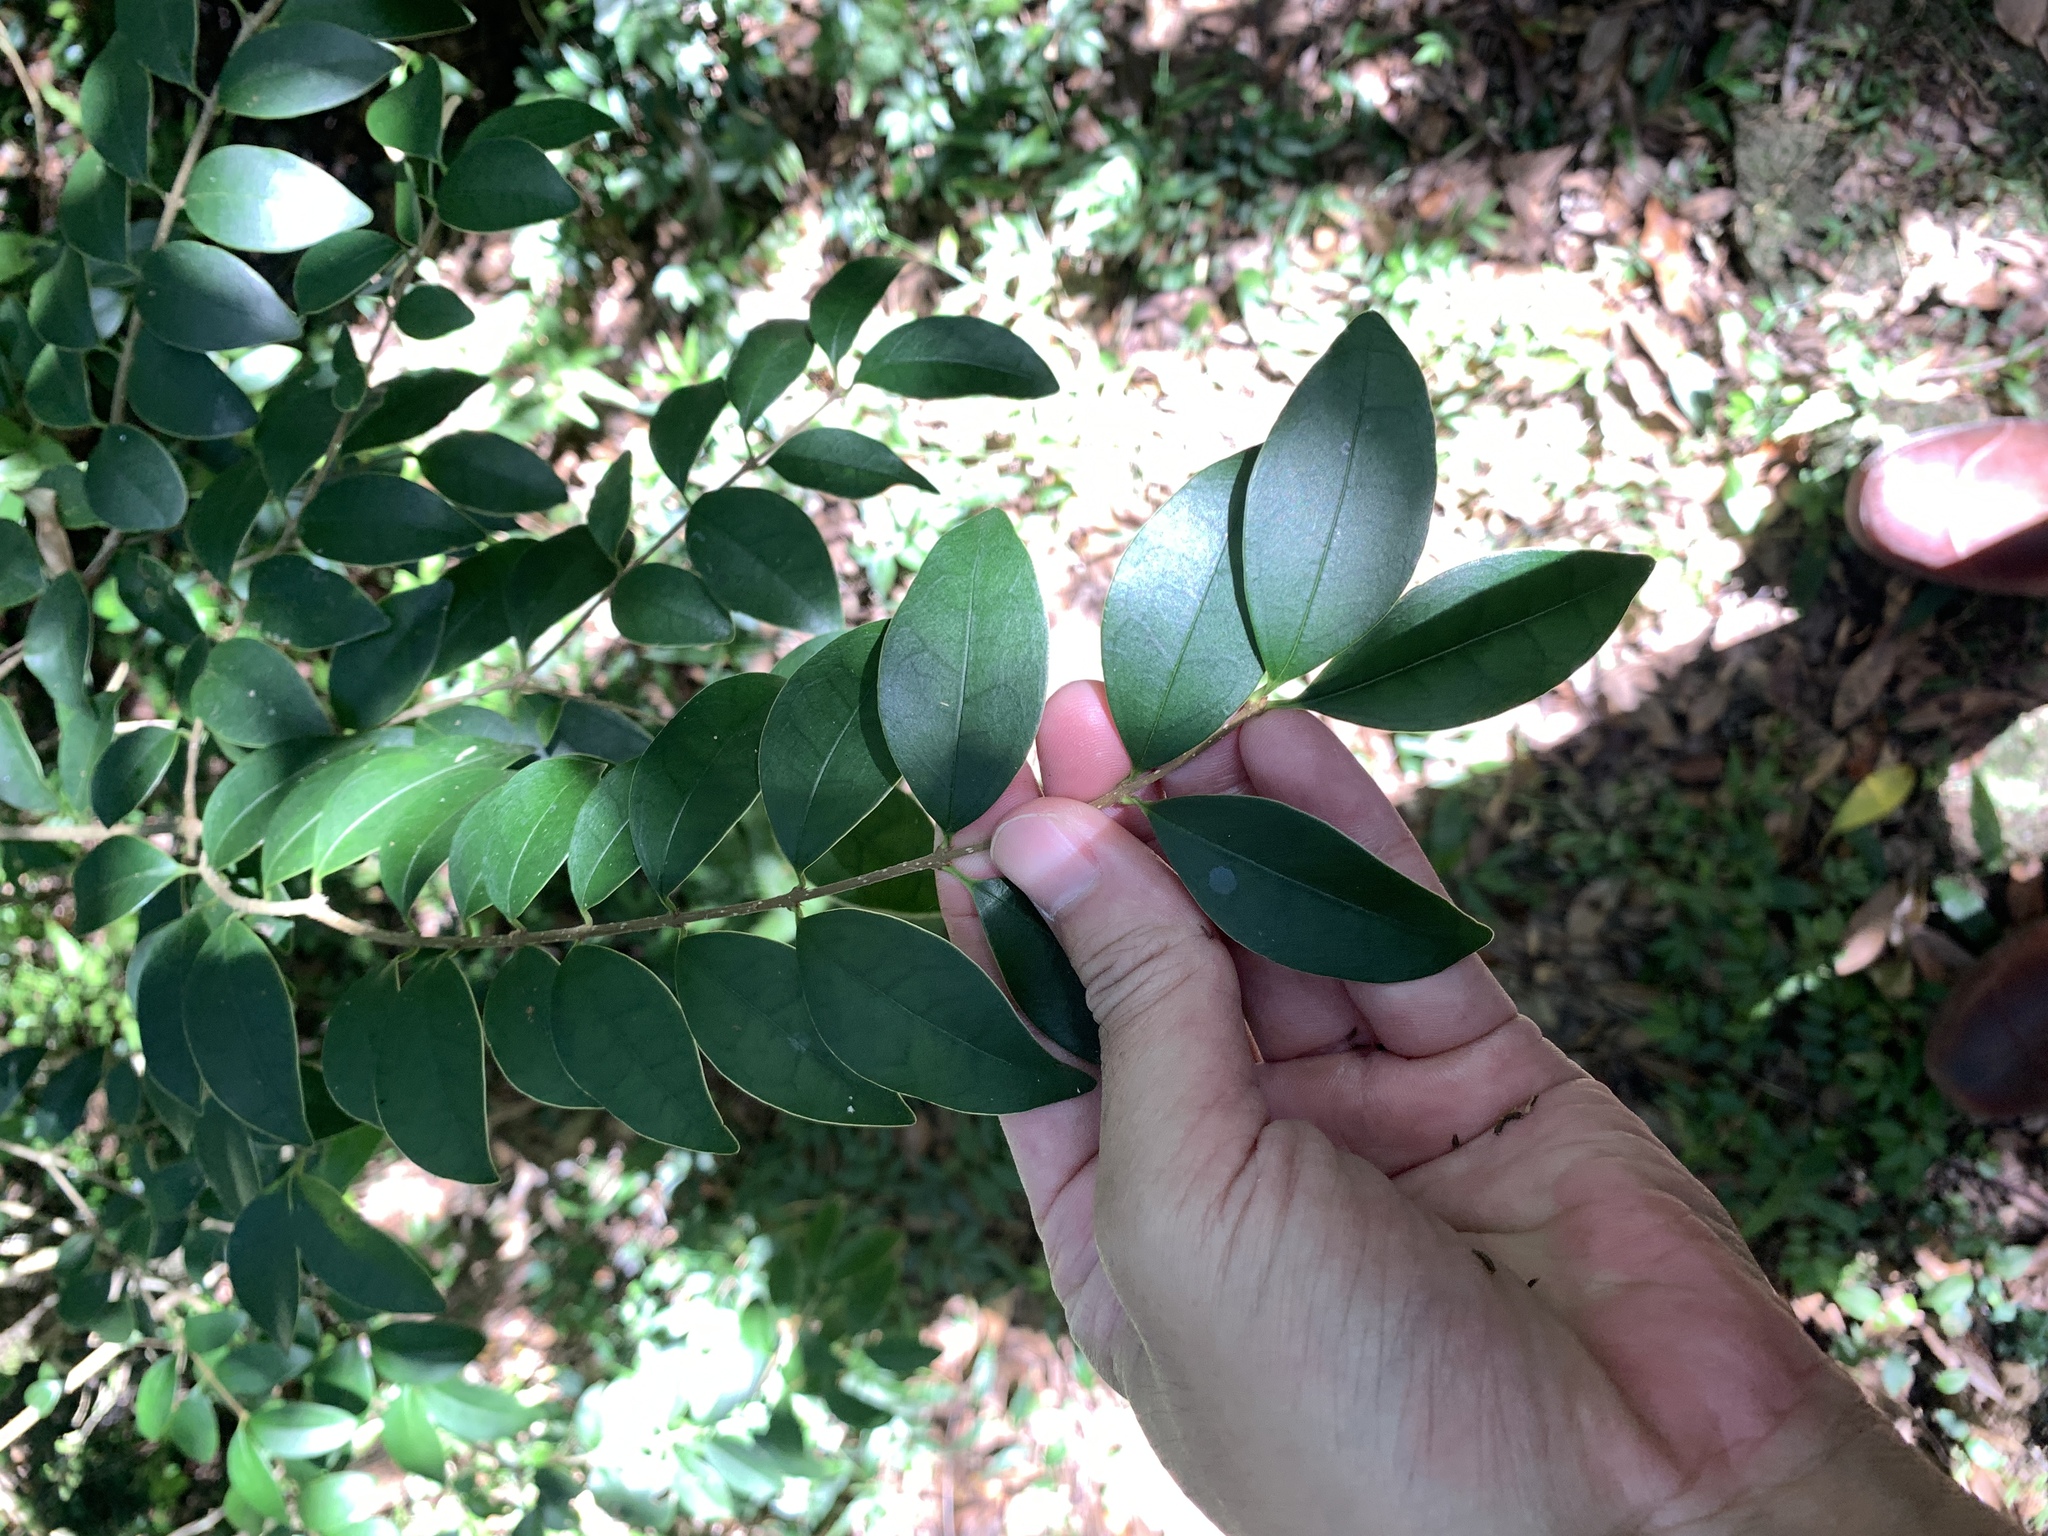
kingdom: Plantae
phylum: Tracheophyta
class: Magnoliopsida
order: Lamiales
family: Oleaceae
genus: Ligustrum
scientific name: Ligustrum japonicum
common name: Japanese privet
